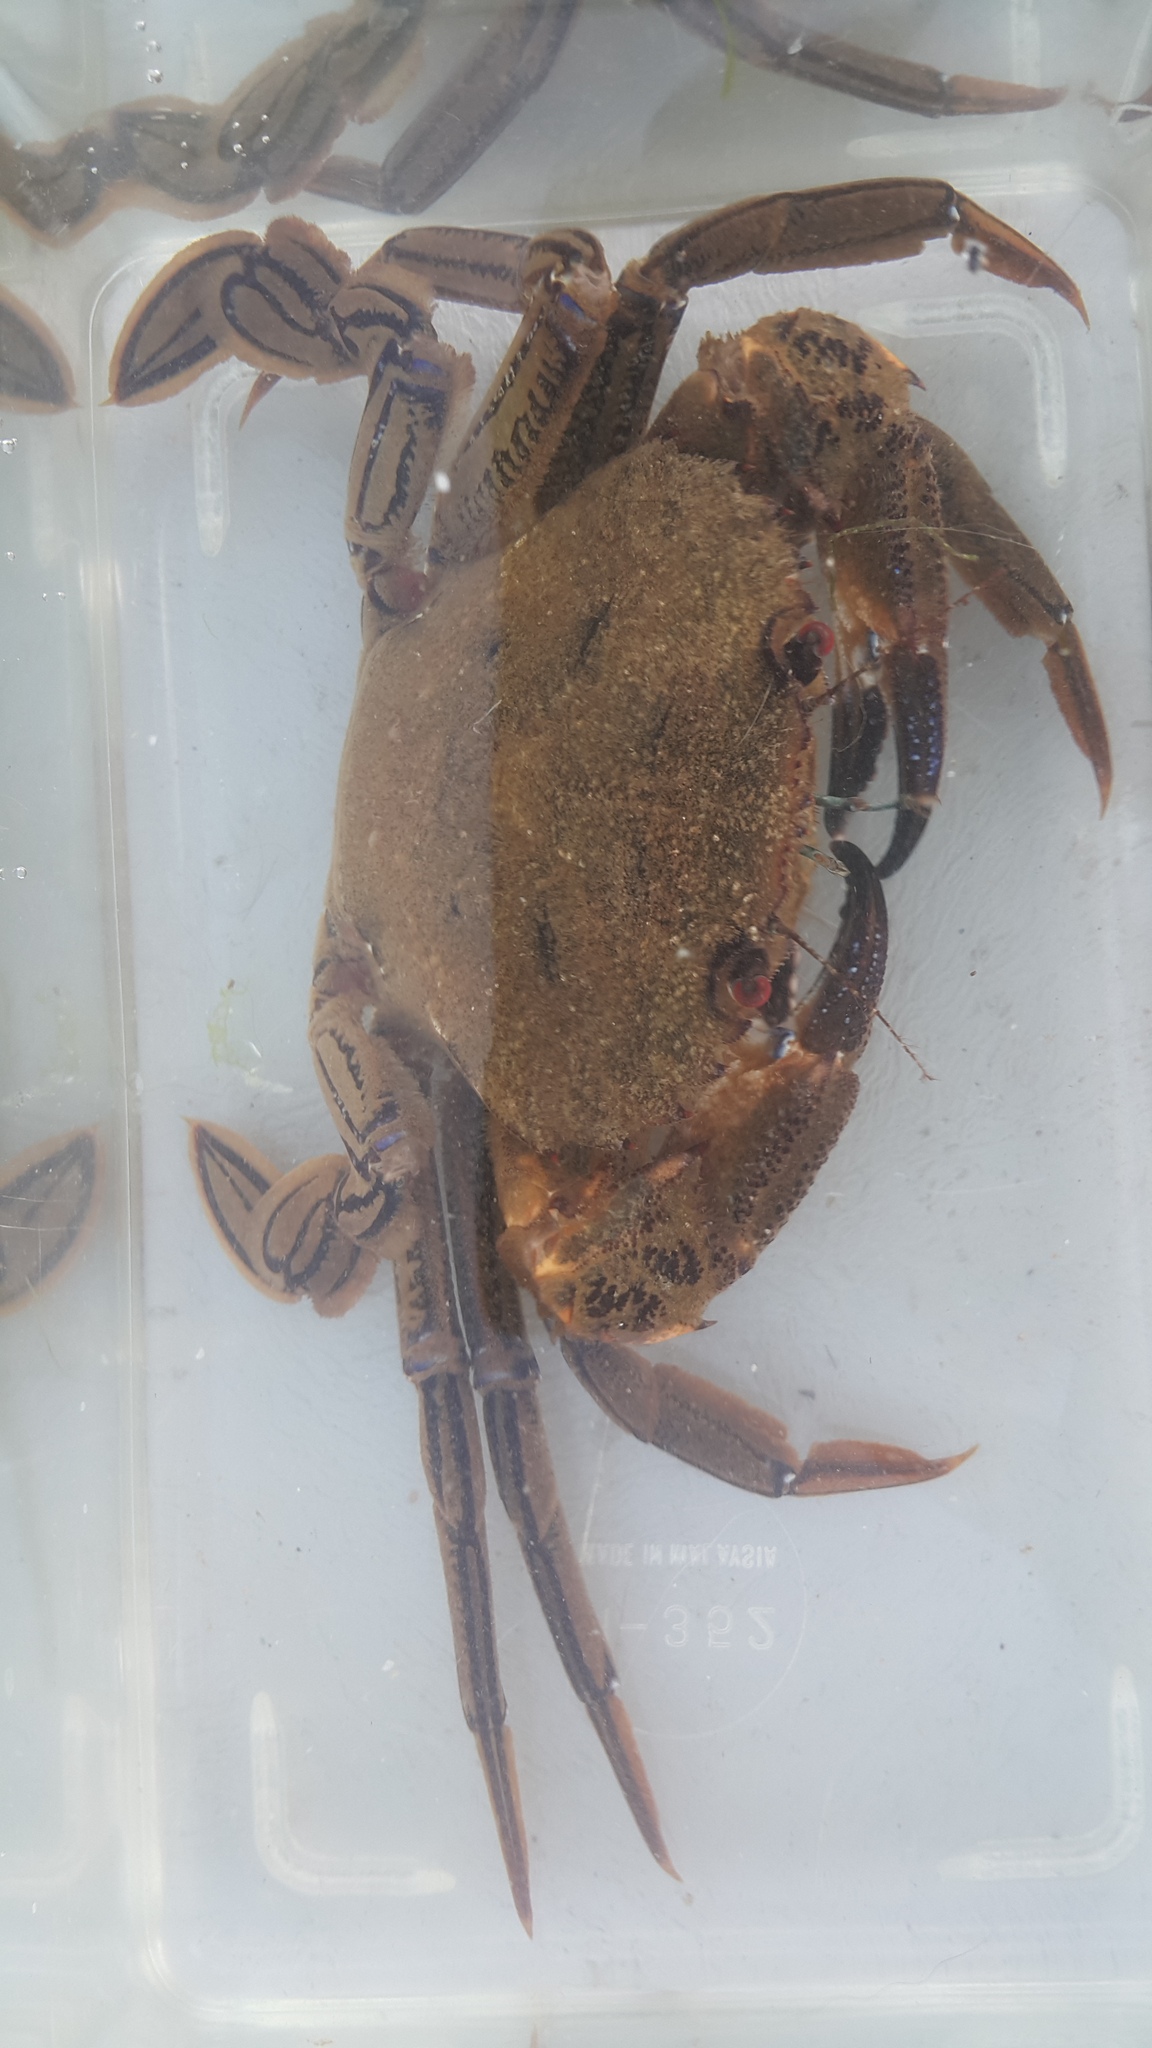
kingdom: Animalia
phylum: Arthropoda
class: Malacostraca
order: Decapoda
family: Polybiidae
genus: Necora
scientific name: Necora puber
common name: Velvet swimming crab
